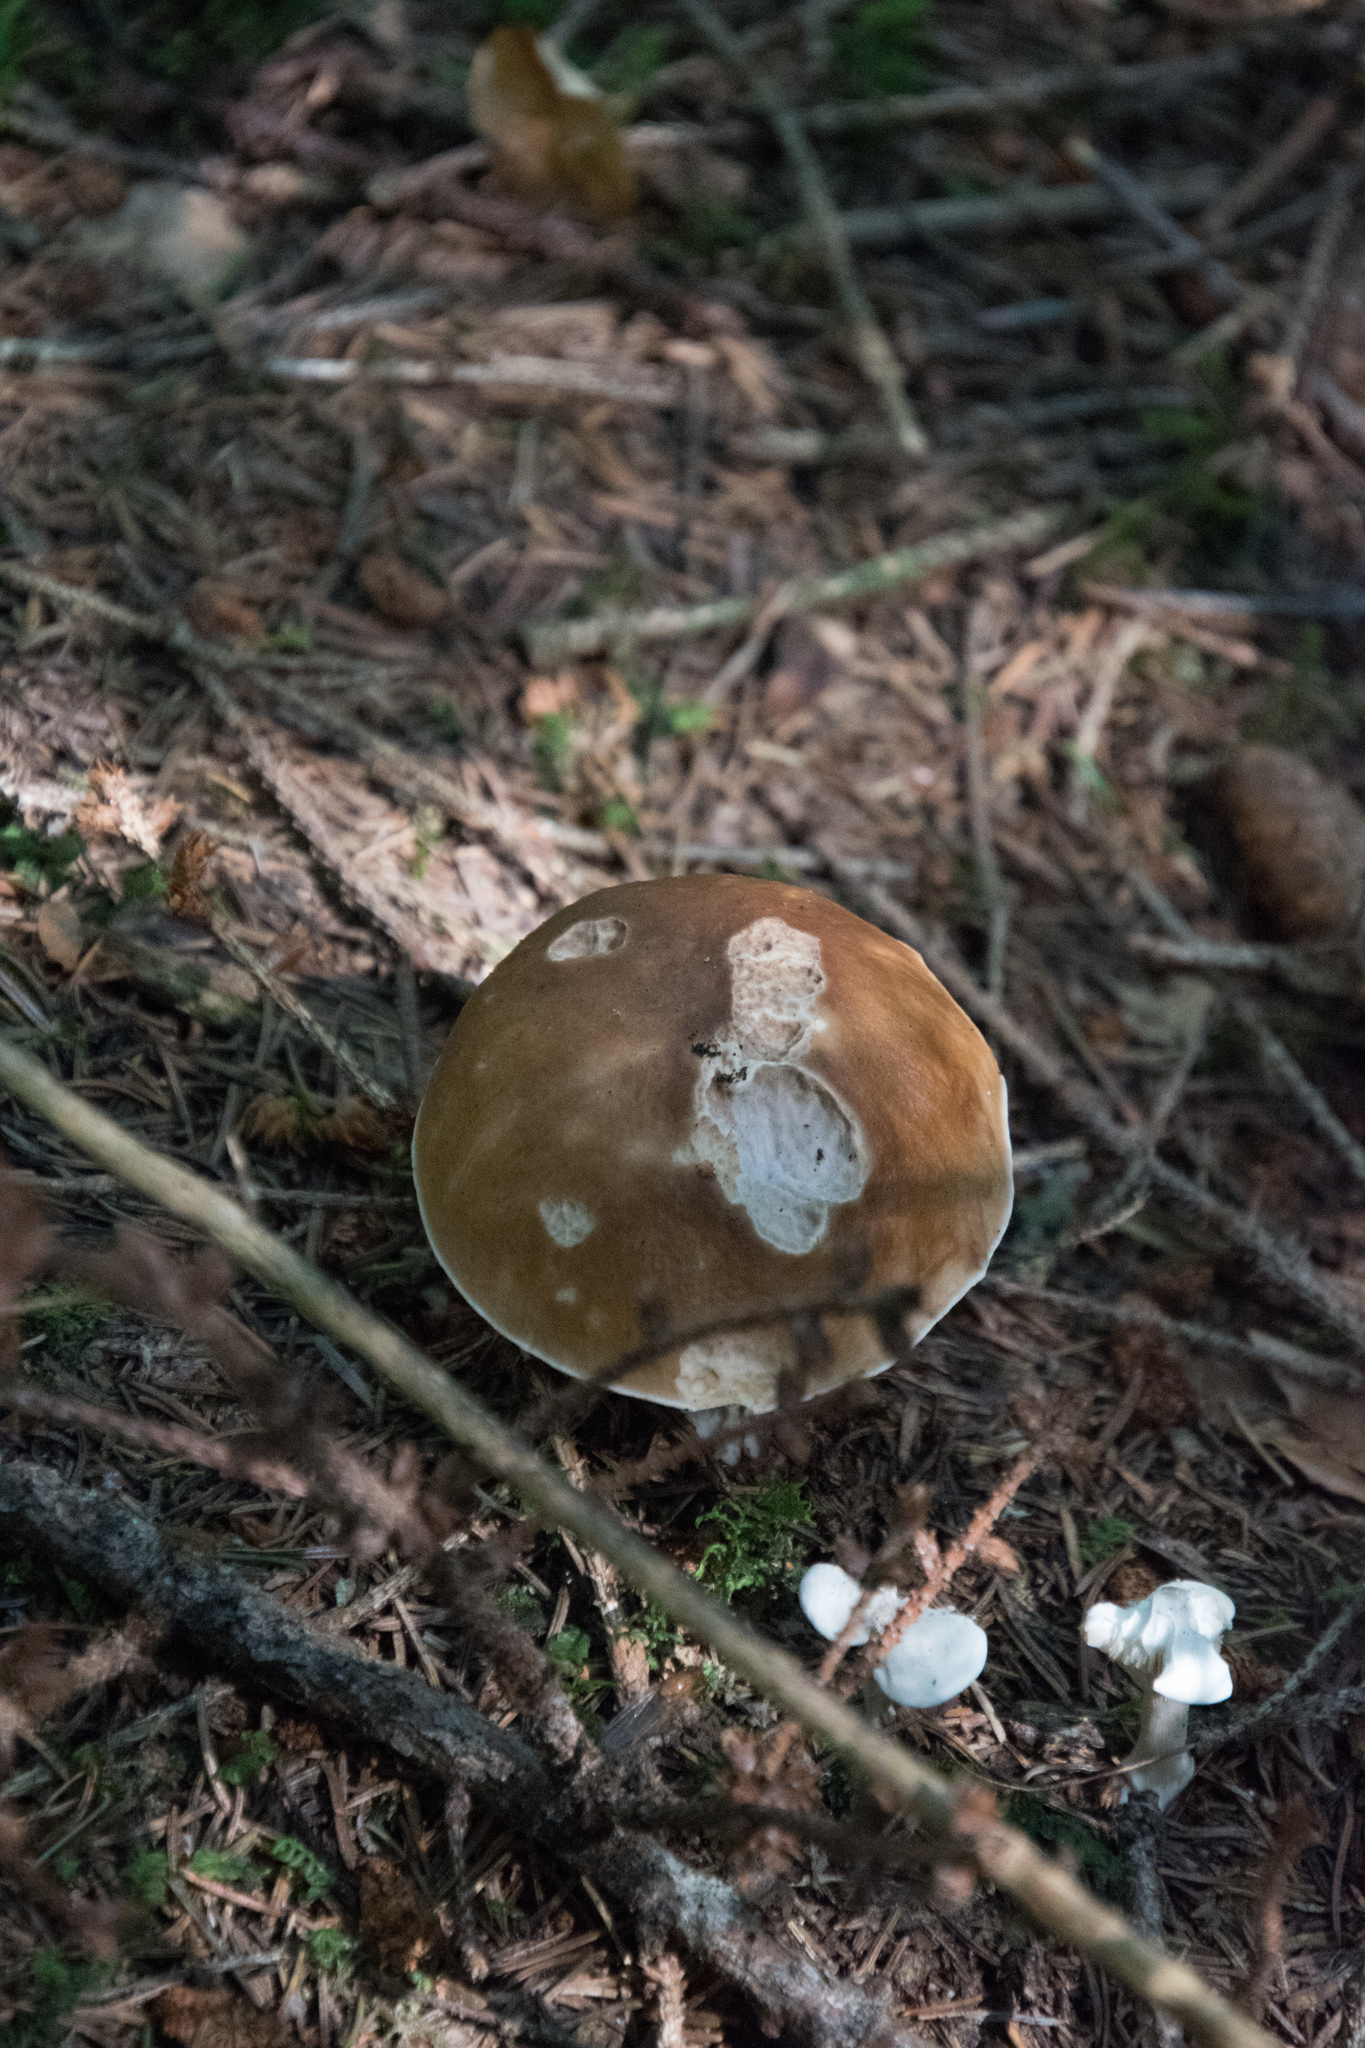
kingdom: Fungi
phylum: Basidiomycota
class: Agaricomycetes
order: Boletales
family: Boletaceae
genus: Boletus
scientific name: Boletus edulis
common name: Cep
